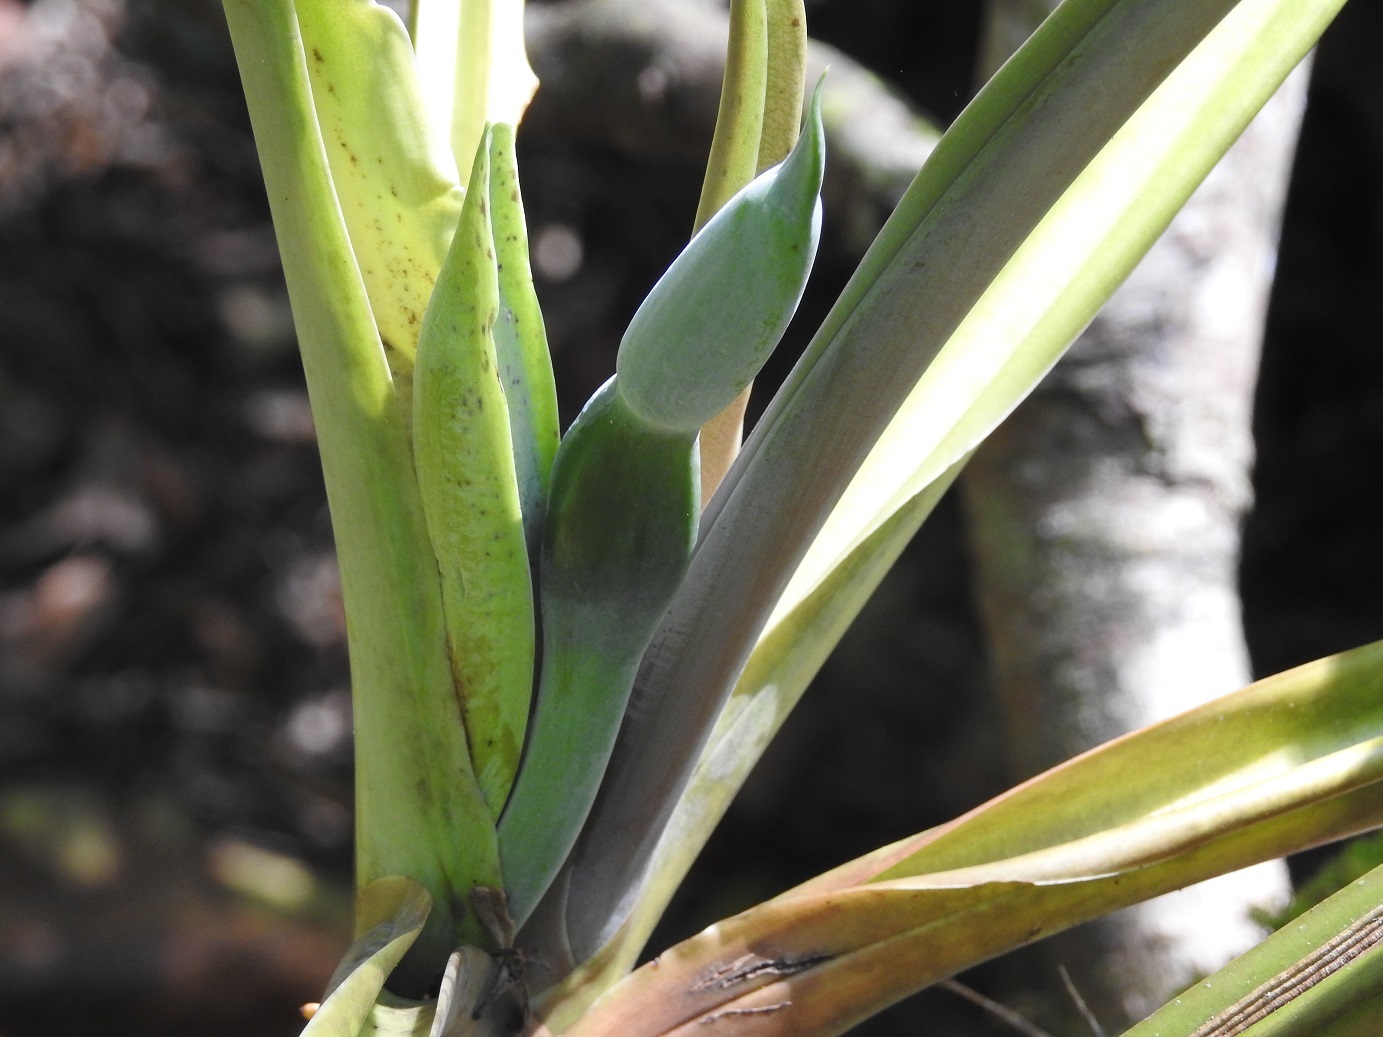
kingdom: Plantae
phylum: Tracheophyta
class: Liliopsida
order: Alismatales
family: Araceae
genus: Philodendron
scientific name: Philodendron sagittifolium
